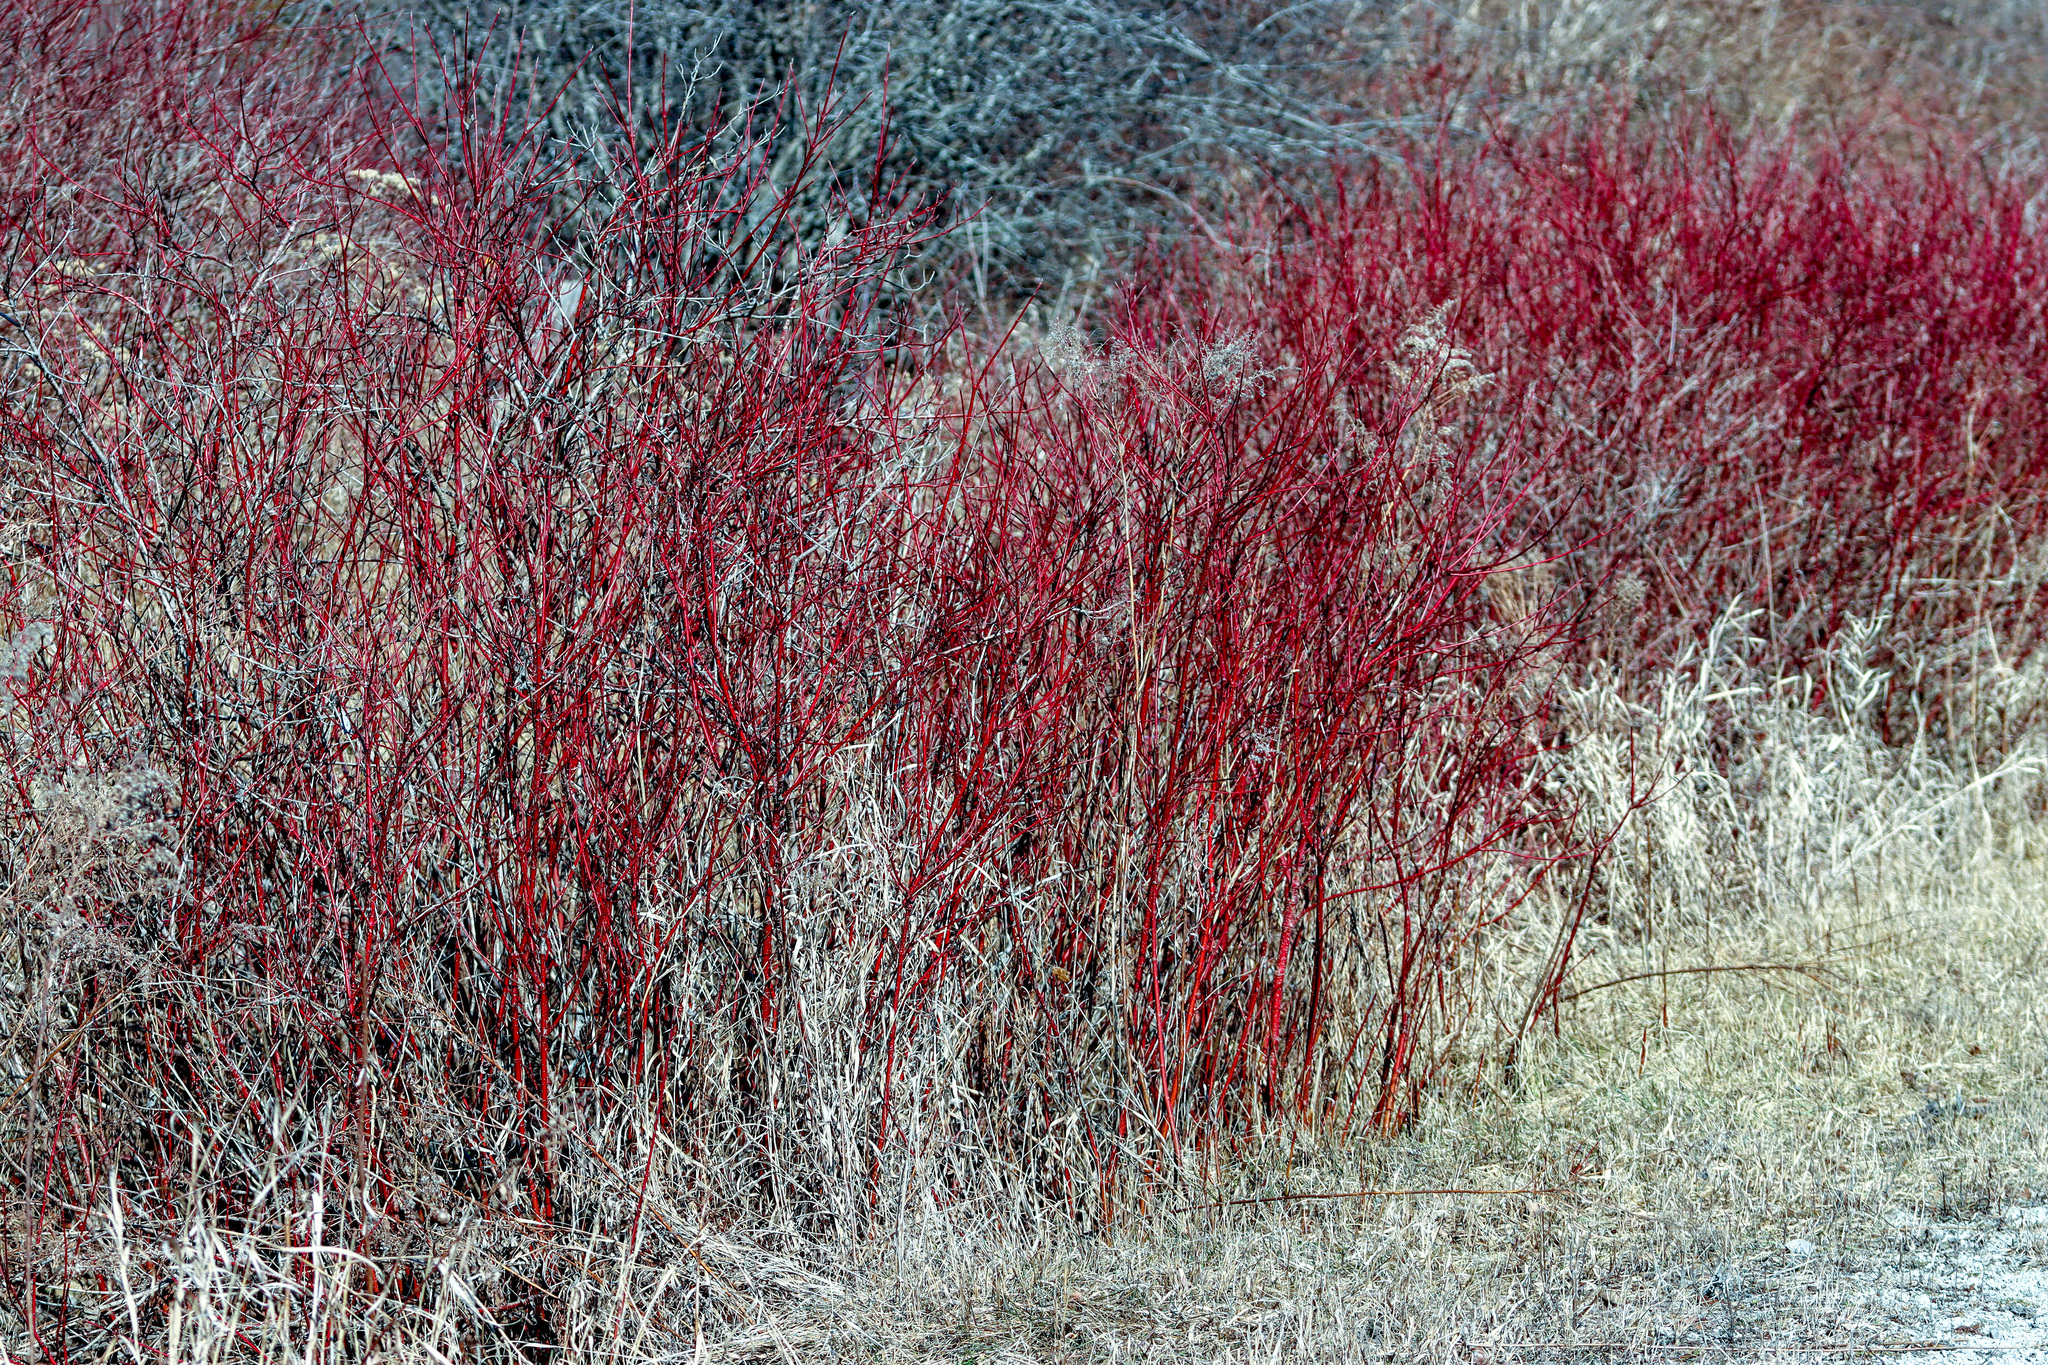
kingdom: Plantae
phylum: Tracheophyta
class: Magnoliopsida
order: Cornales
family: Cornaceae
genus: Cornus
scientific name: Cornus sericea
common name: Red-osier dogwood
